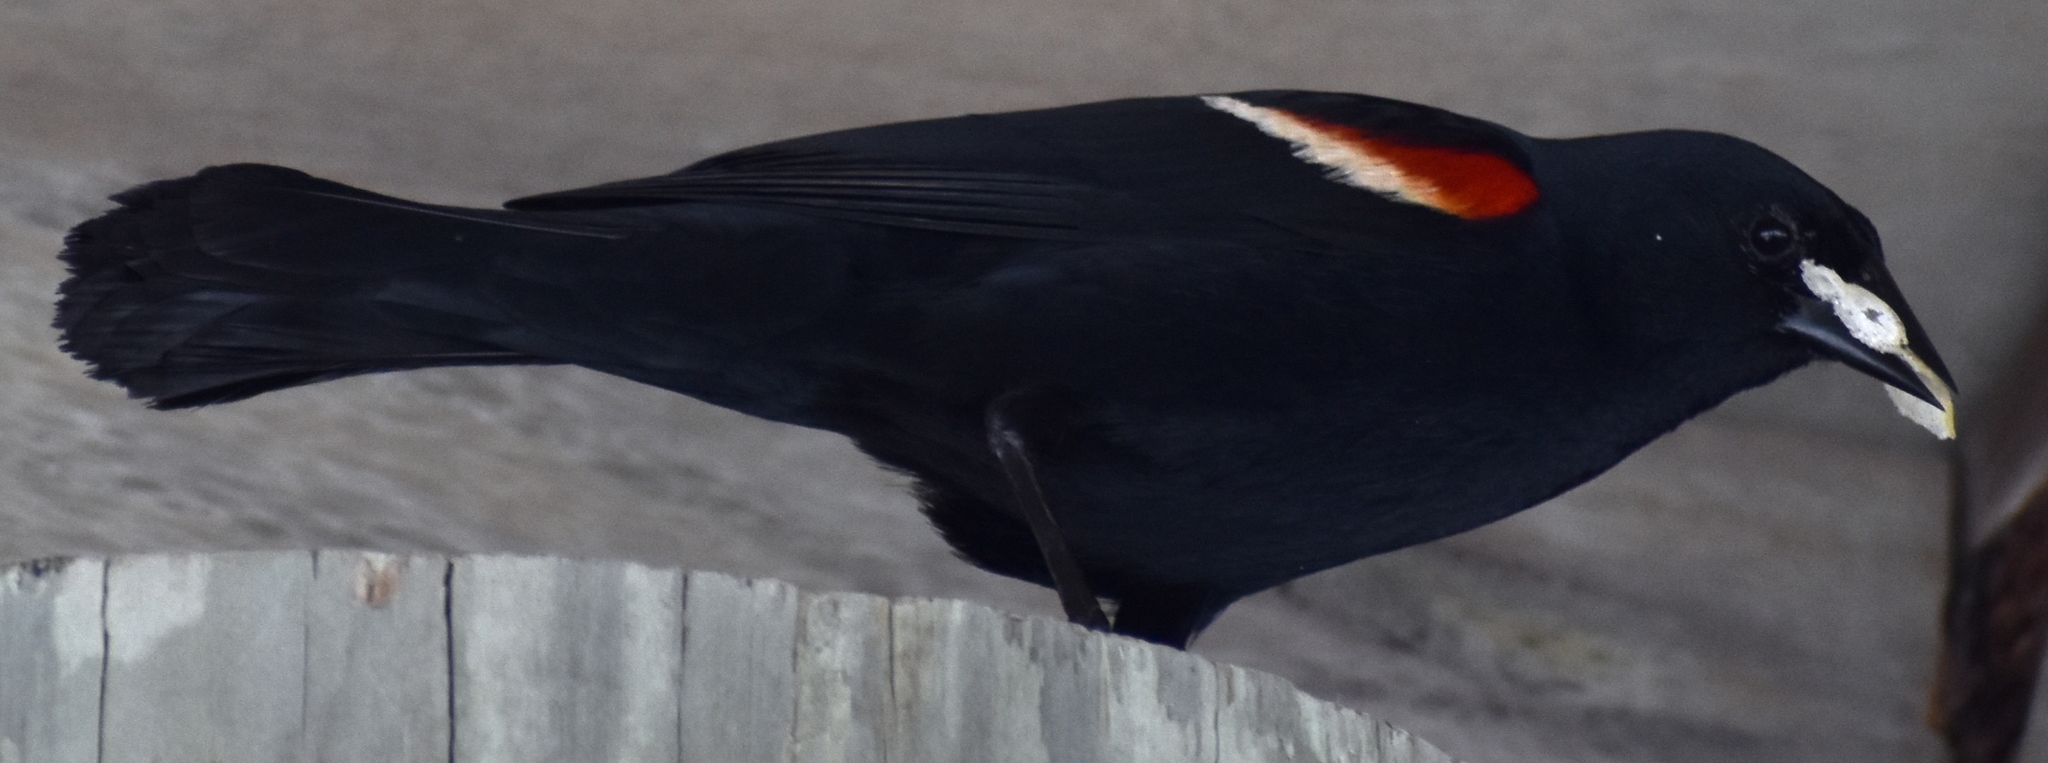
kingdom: Animalia
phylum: Chordata
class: Aves
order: Passeriformes
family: Icteridae
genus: Agelaius
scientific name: Agelaius phoeniceus
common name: Red-winged blackbird
